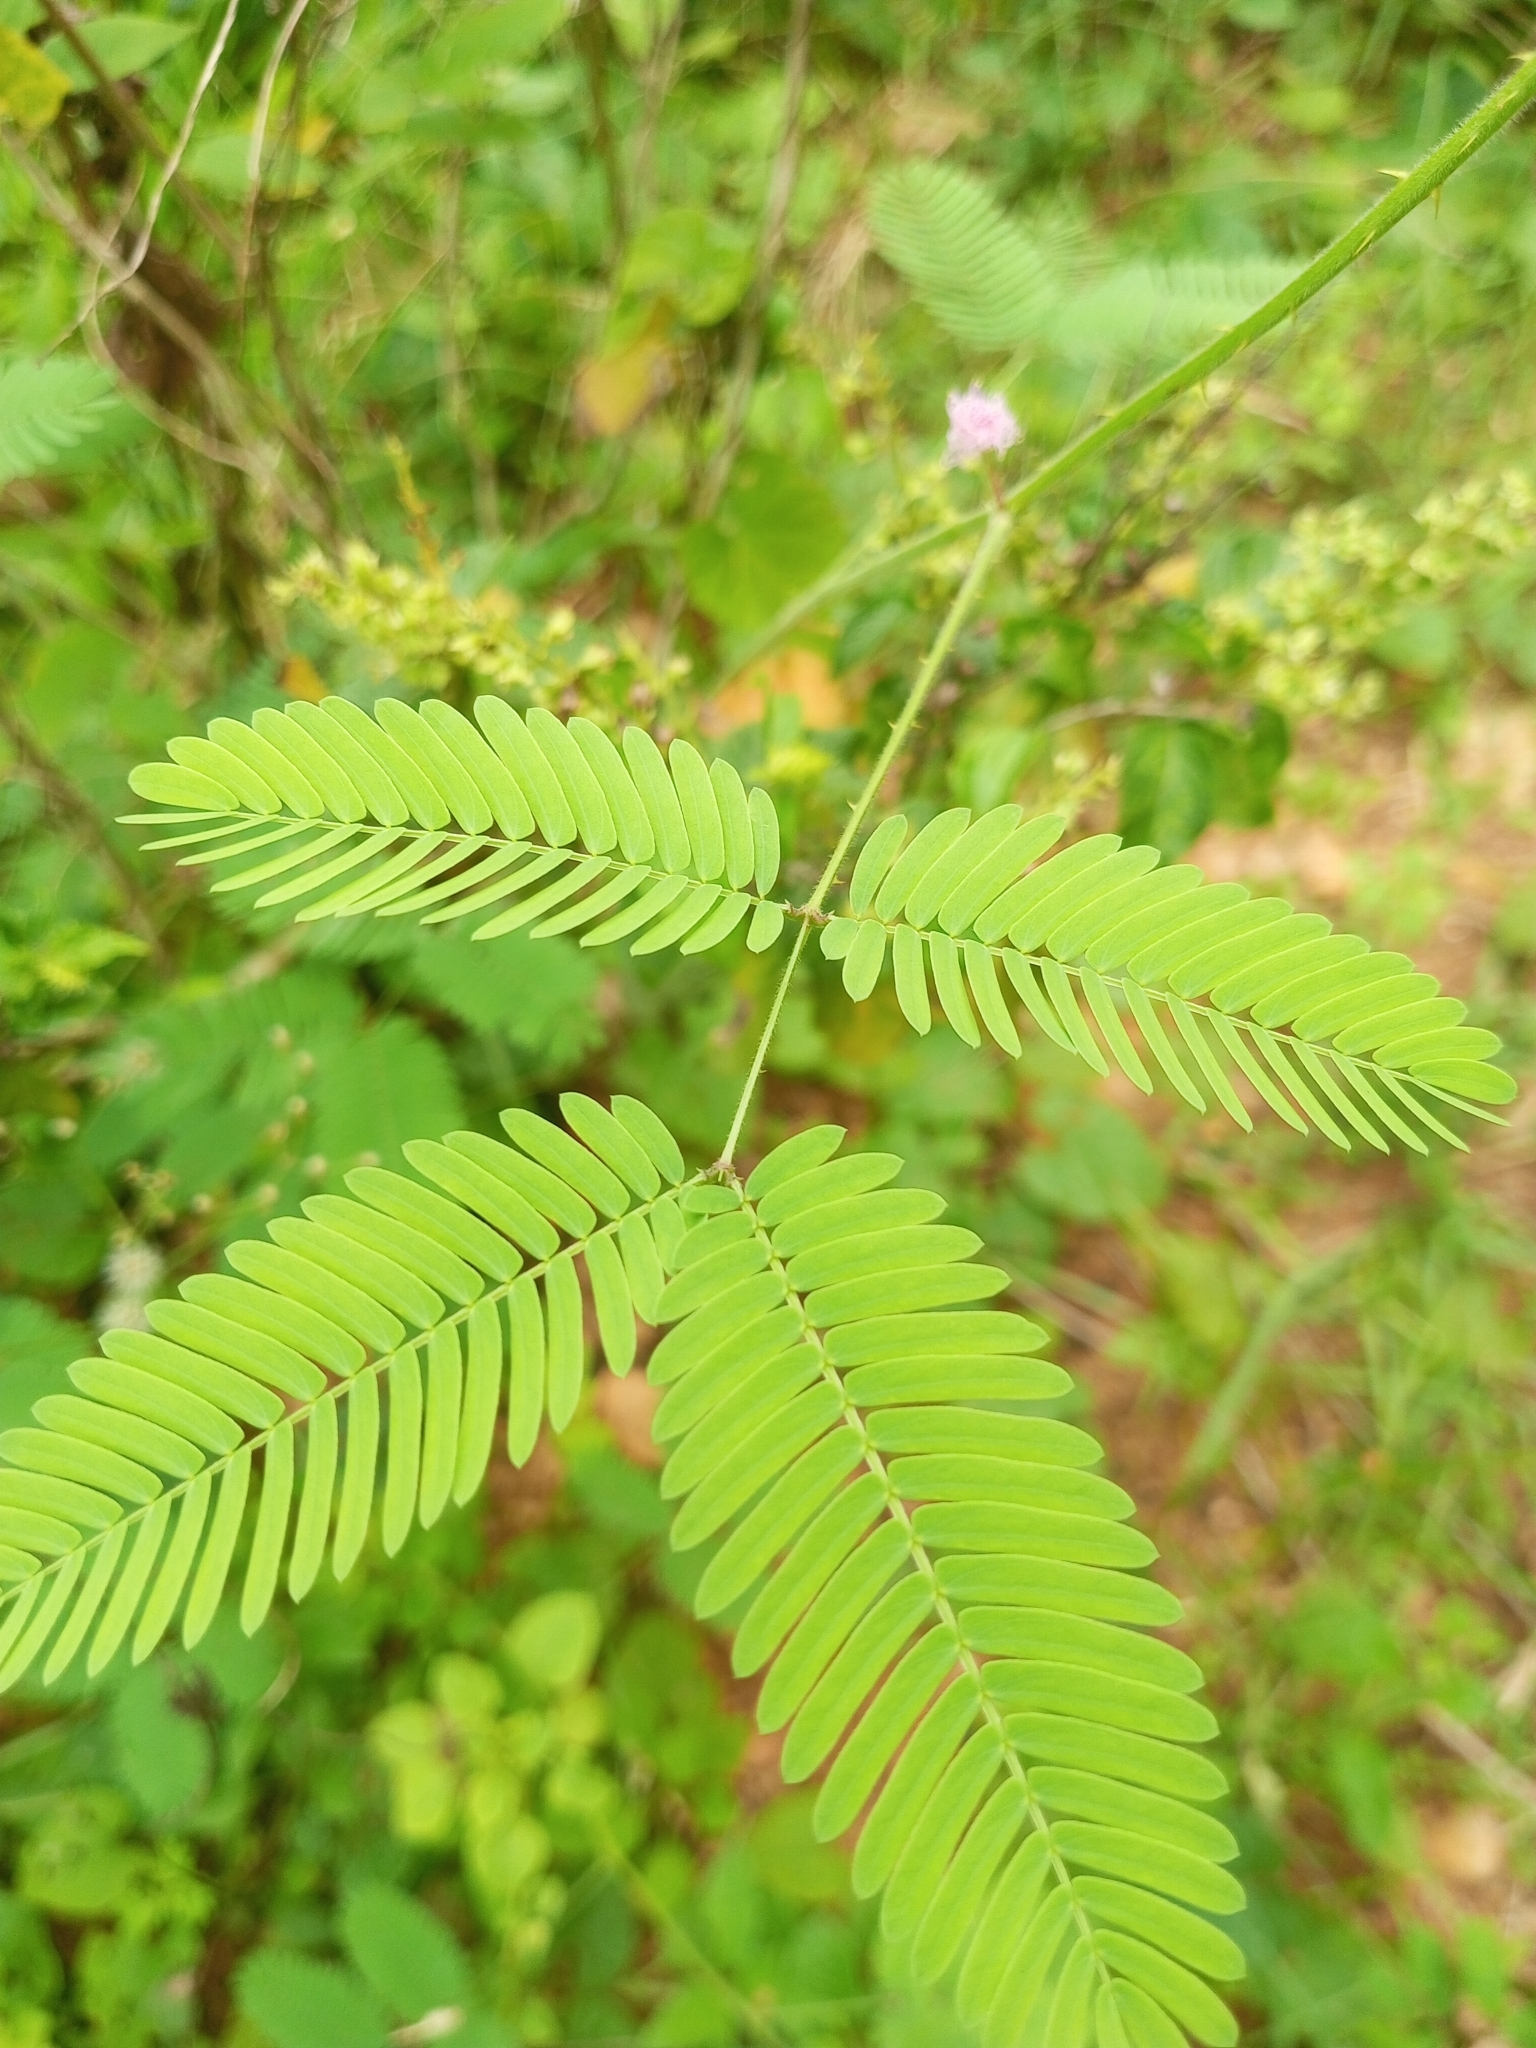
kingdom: Plantae
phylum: Tracheophyta
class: Magnoliopsida
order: Fabales
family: Fabaceae
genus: Mimosa
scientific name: Mimosa candollei
